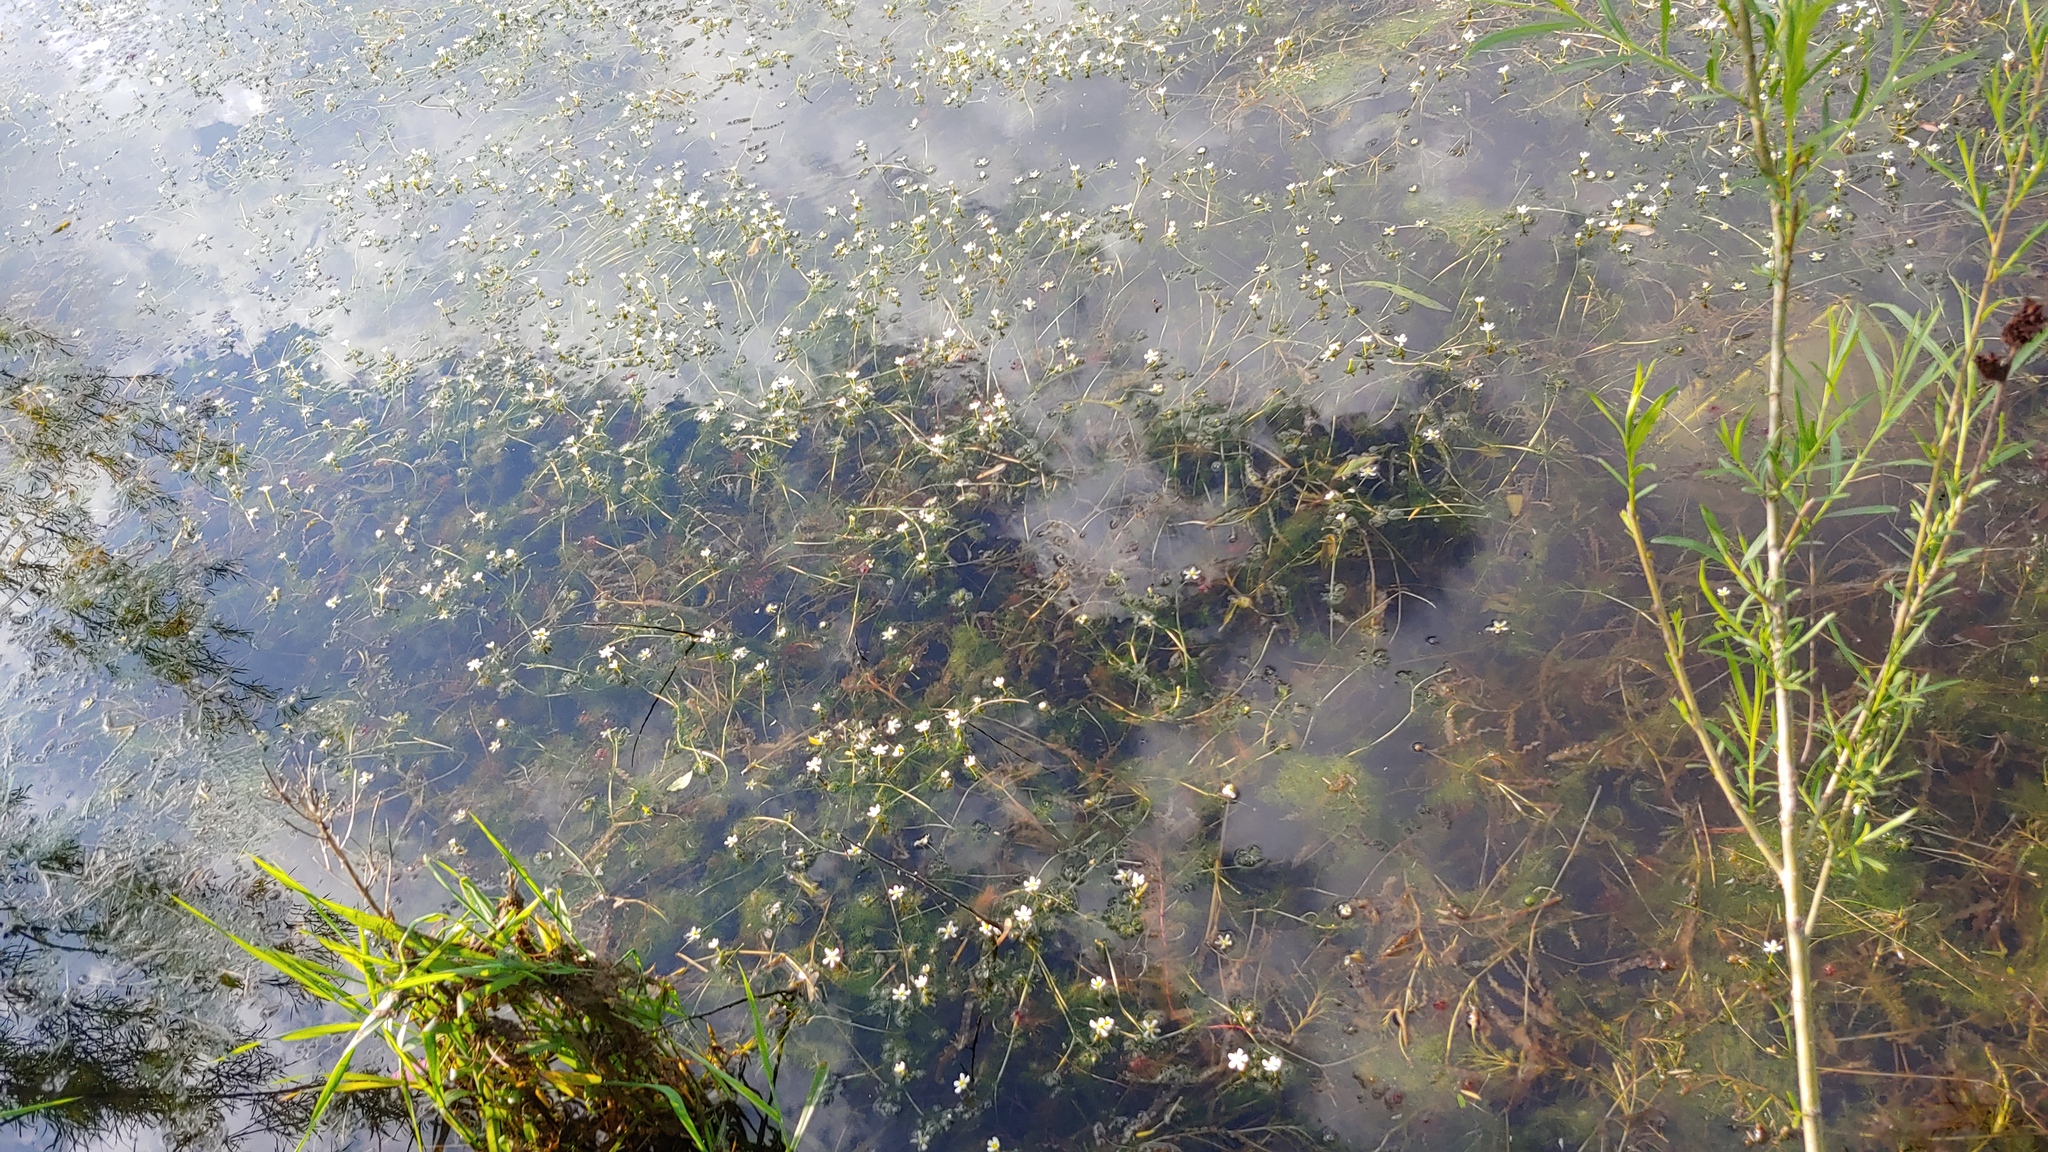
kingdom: Plantae
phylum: Tracheophyta
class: Magnoliopsida
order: Ranunculales
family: Ranunculaceae
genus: Ranunculus
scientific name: Ranunculus aquatilis
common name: Common water-crowfoot
